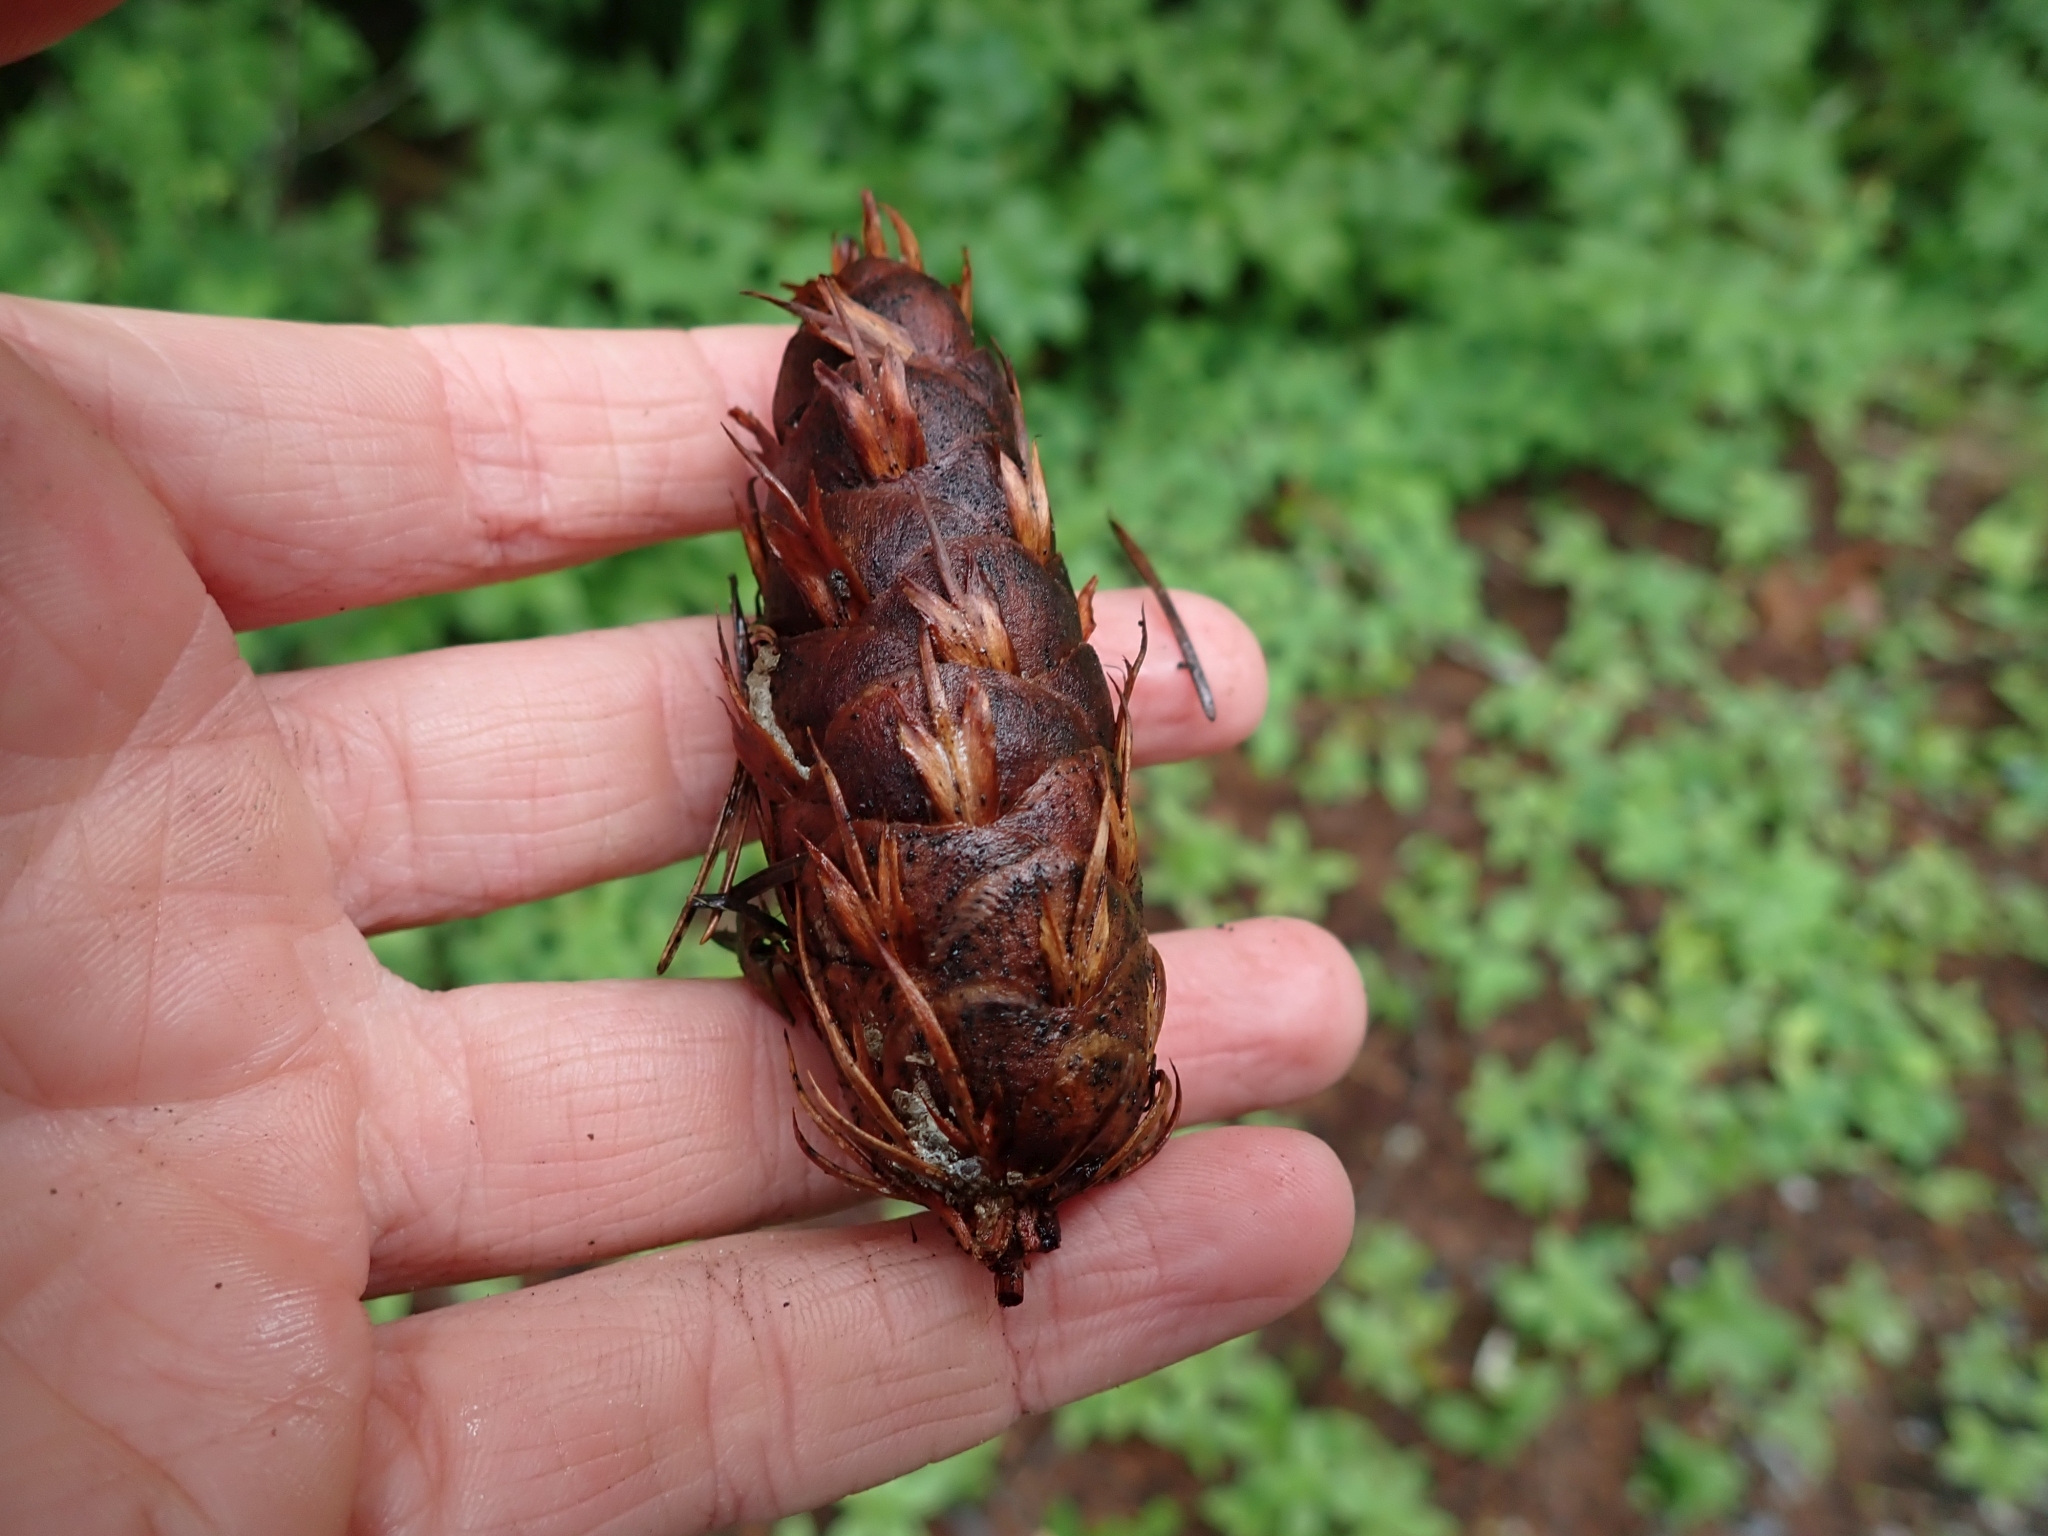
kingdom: Plantae
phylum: Tracheophyta
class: Pinopsida
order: Pinales
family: Pinaceae
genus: Pseudotsuga
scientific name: Pseudotsuga menziesii
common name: Douglas fir
